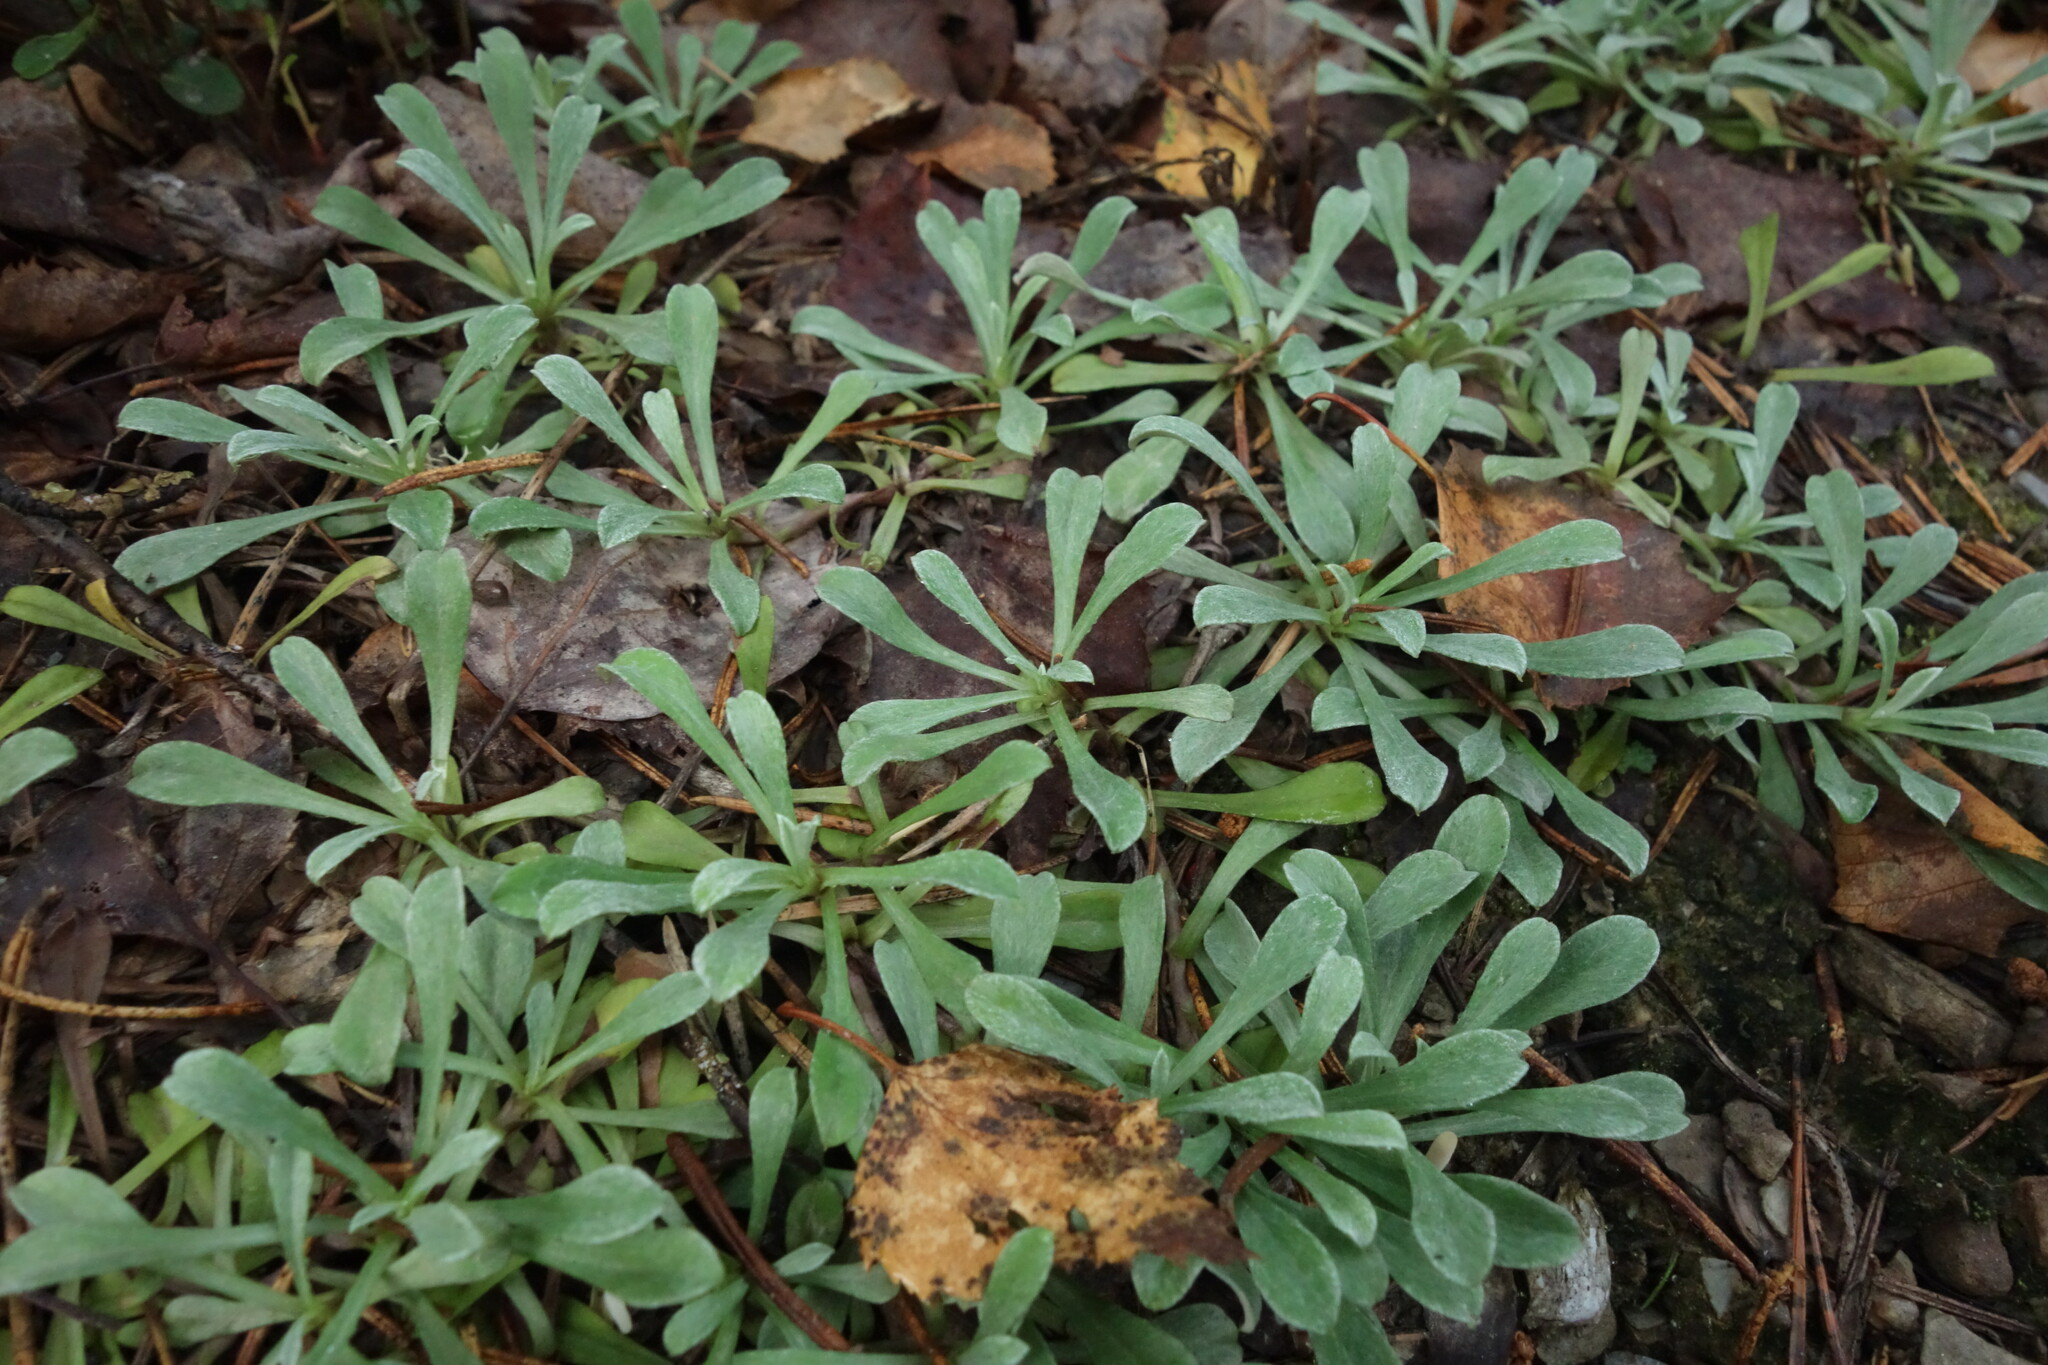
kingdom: Plantae
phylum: Tracheophyta
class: Magnoliopsida
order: Asterales
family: Asteraceae
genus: Antennaria
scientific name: Antennaria dioica
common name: Mountain everlasting
